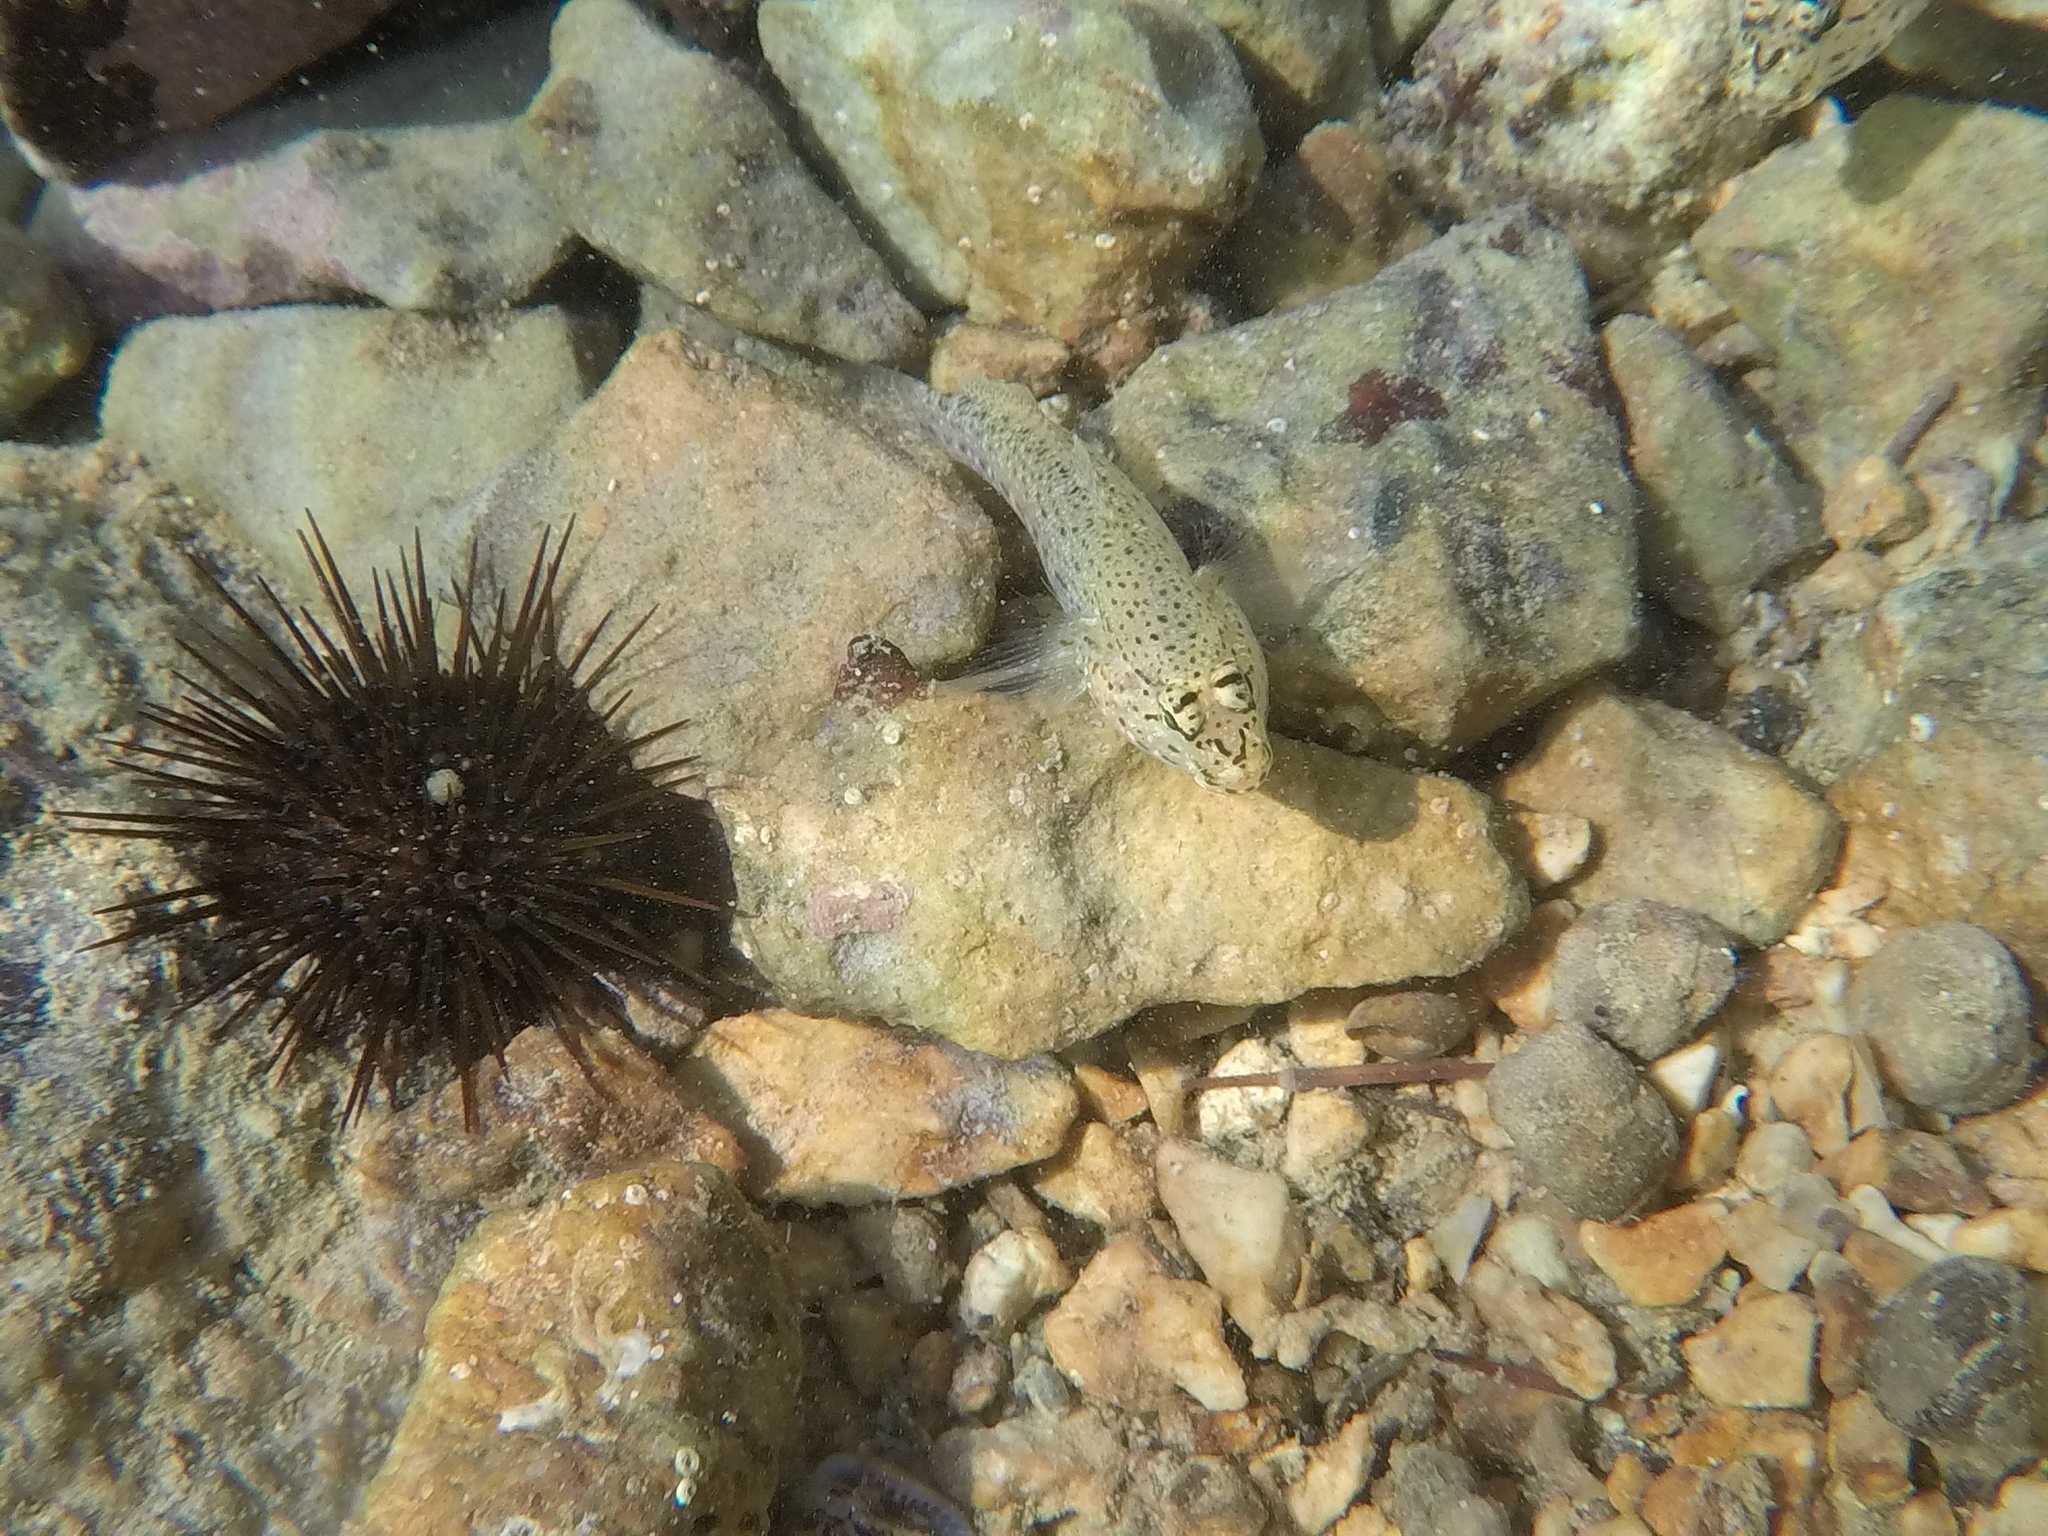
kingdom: Animalia
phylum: Chordata
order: Perciformes
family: Gobiidae
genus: Gobius
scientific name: Gobius incognitus
